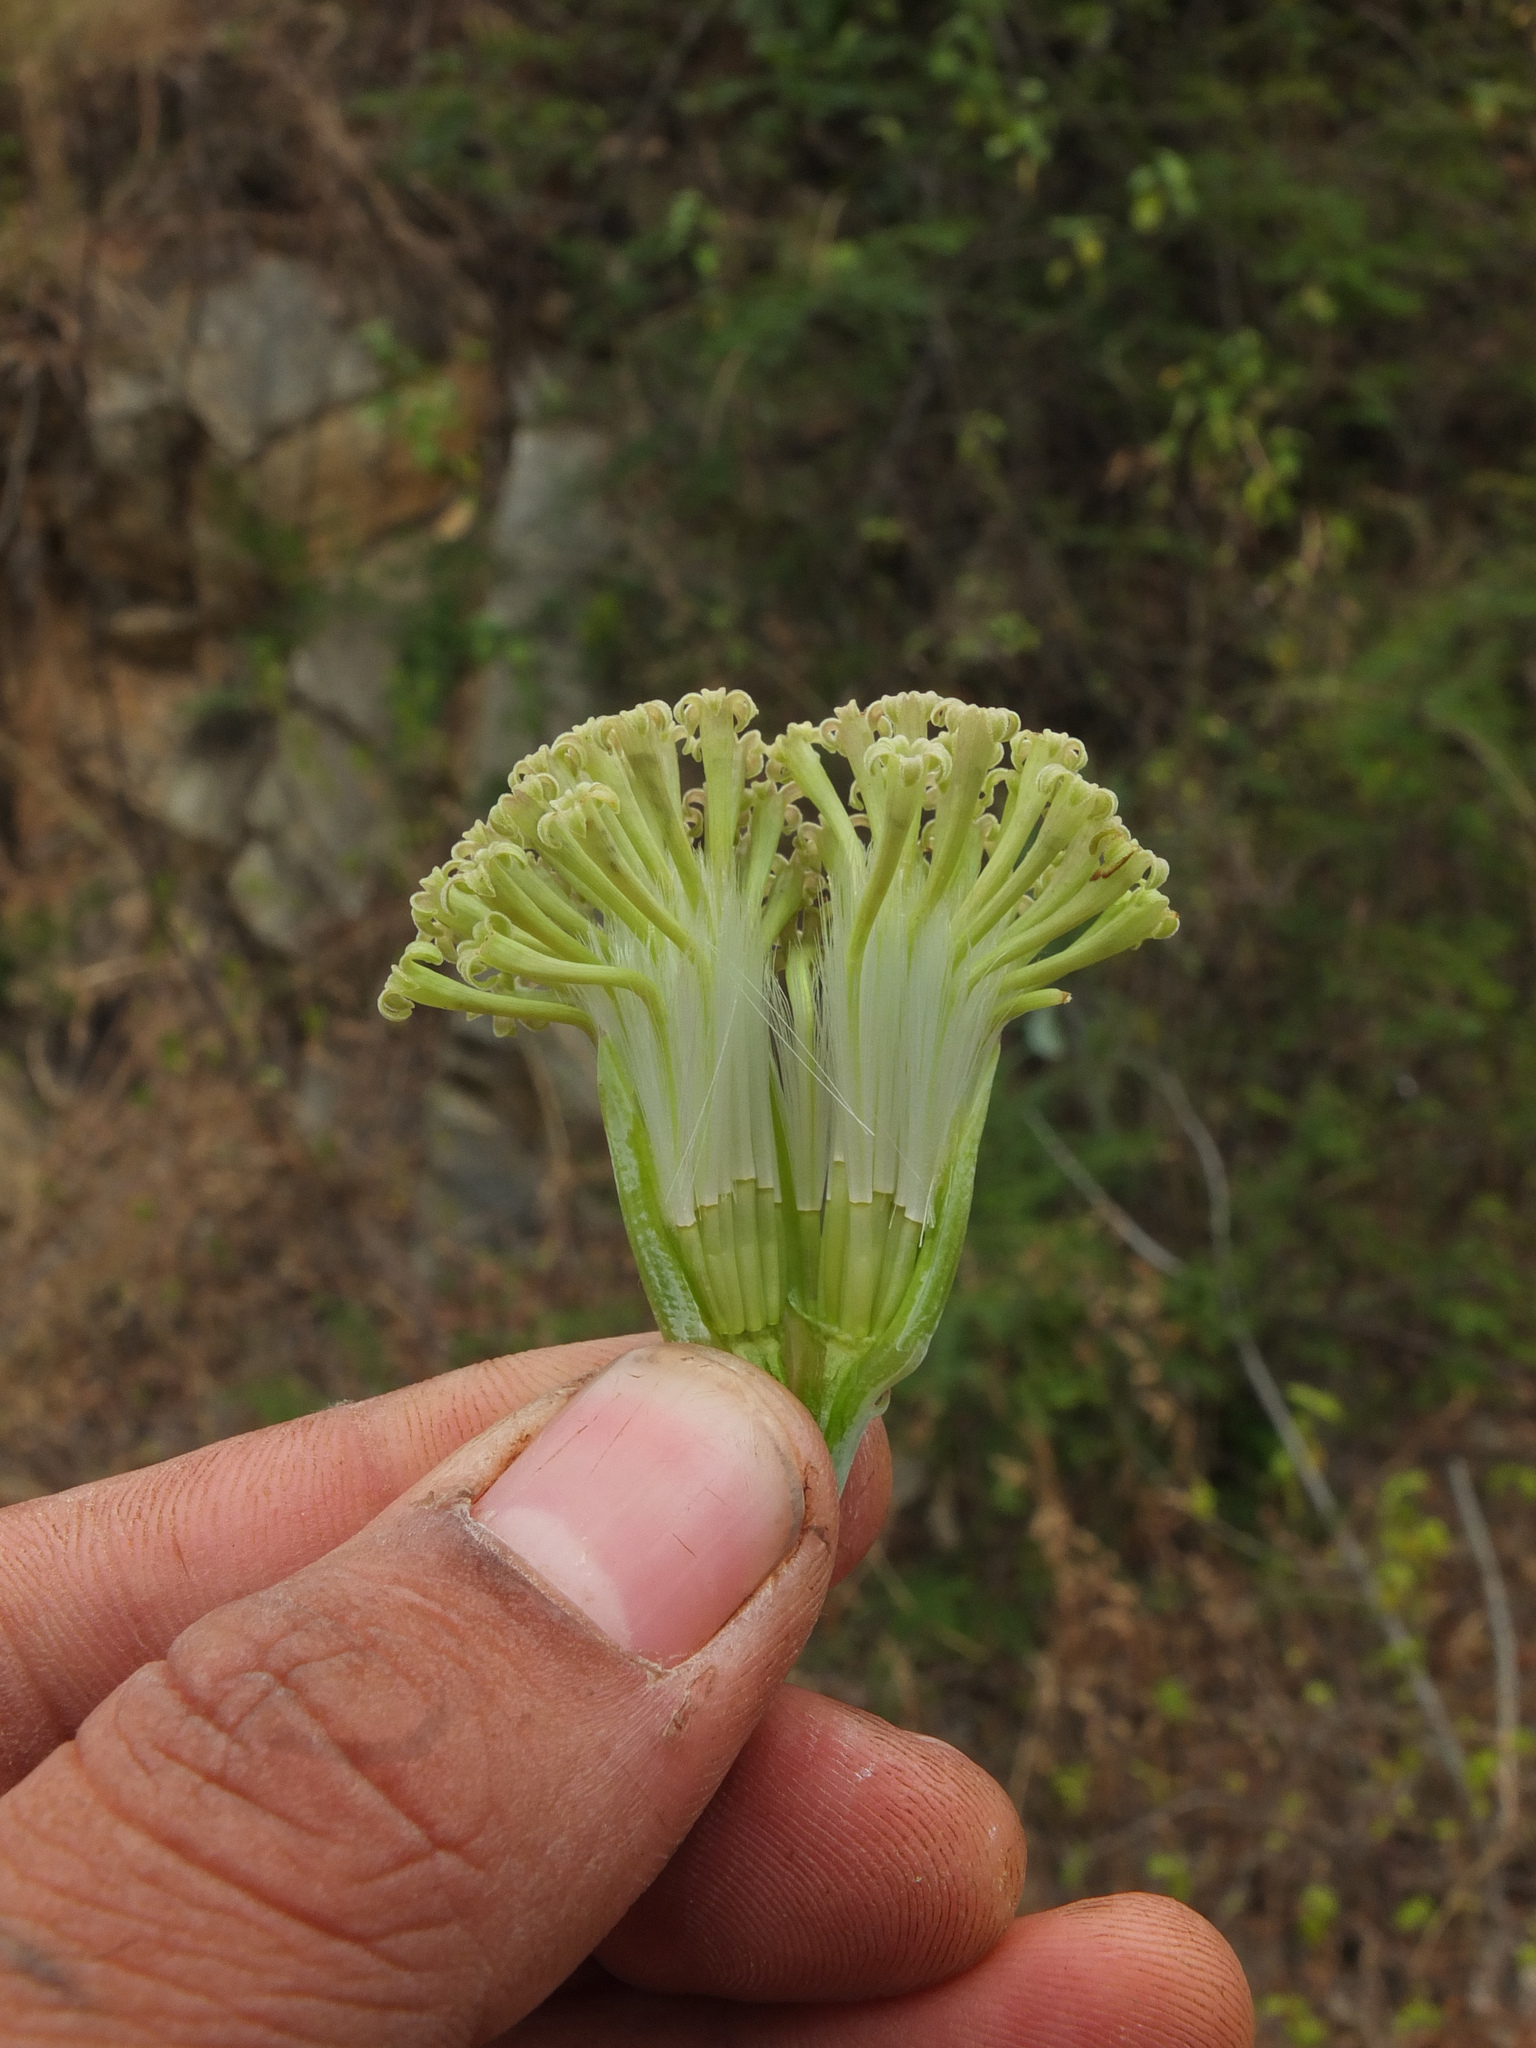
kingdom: Plantae
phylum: Tracheophyta
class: Magnoliopsida
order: Asterales
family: Asteraceae
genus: Kleinia
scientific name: Kleinia grandiflora
